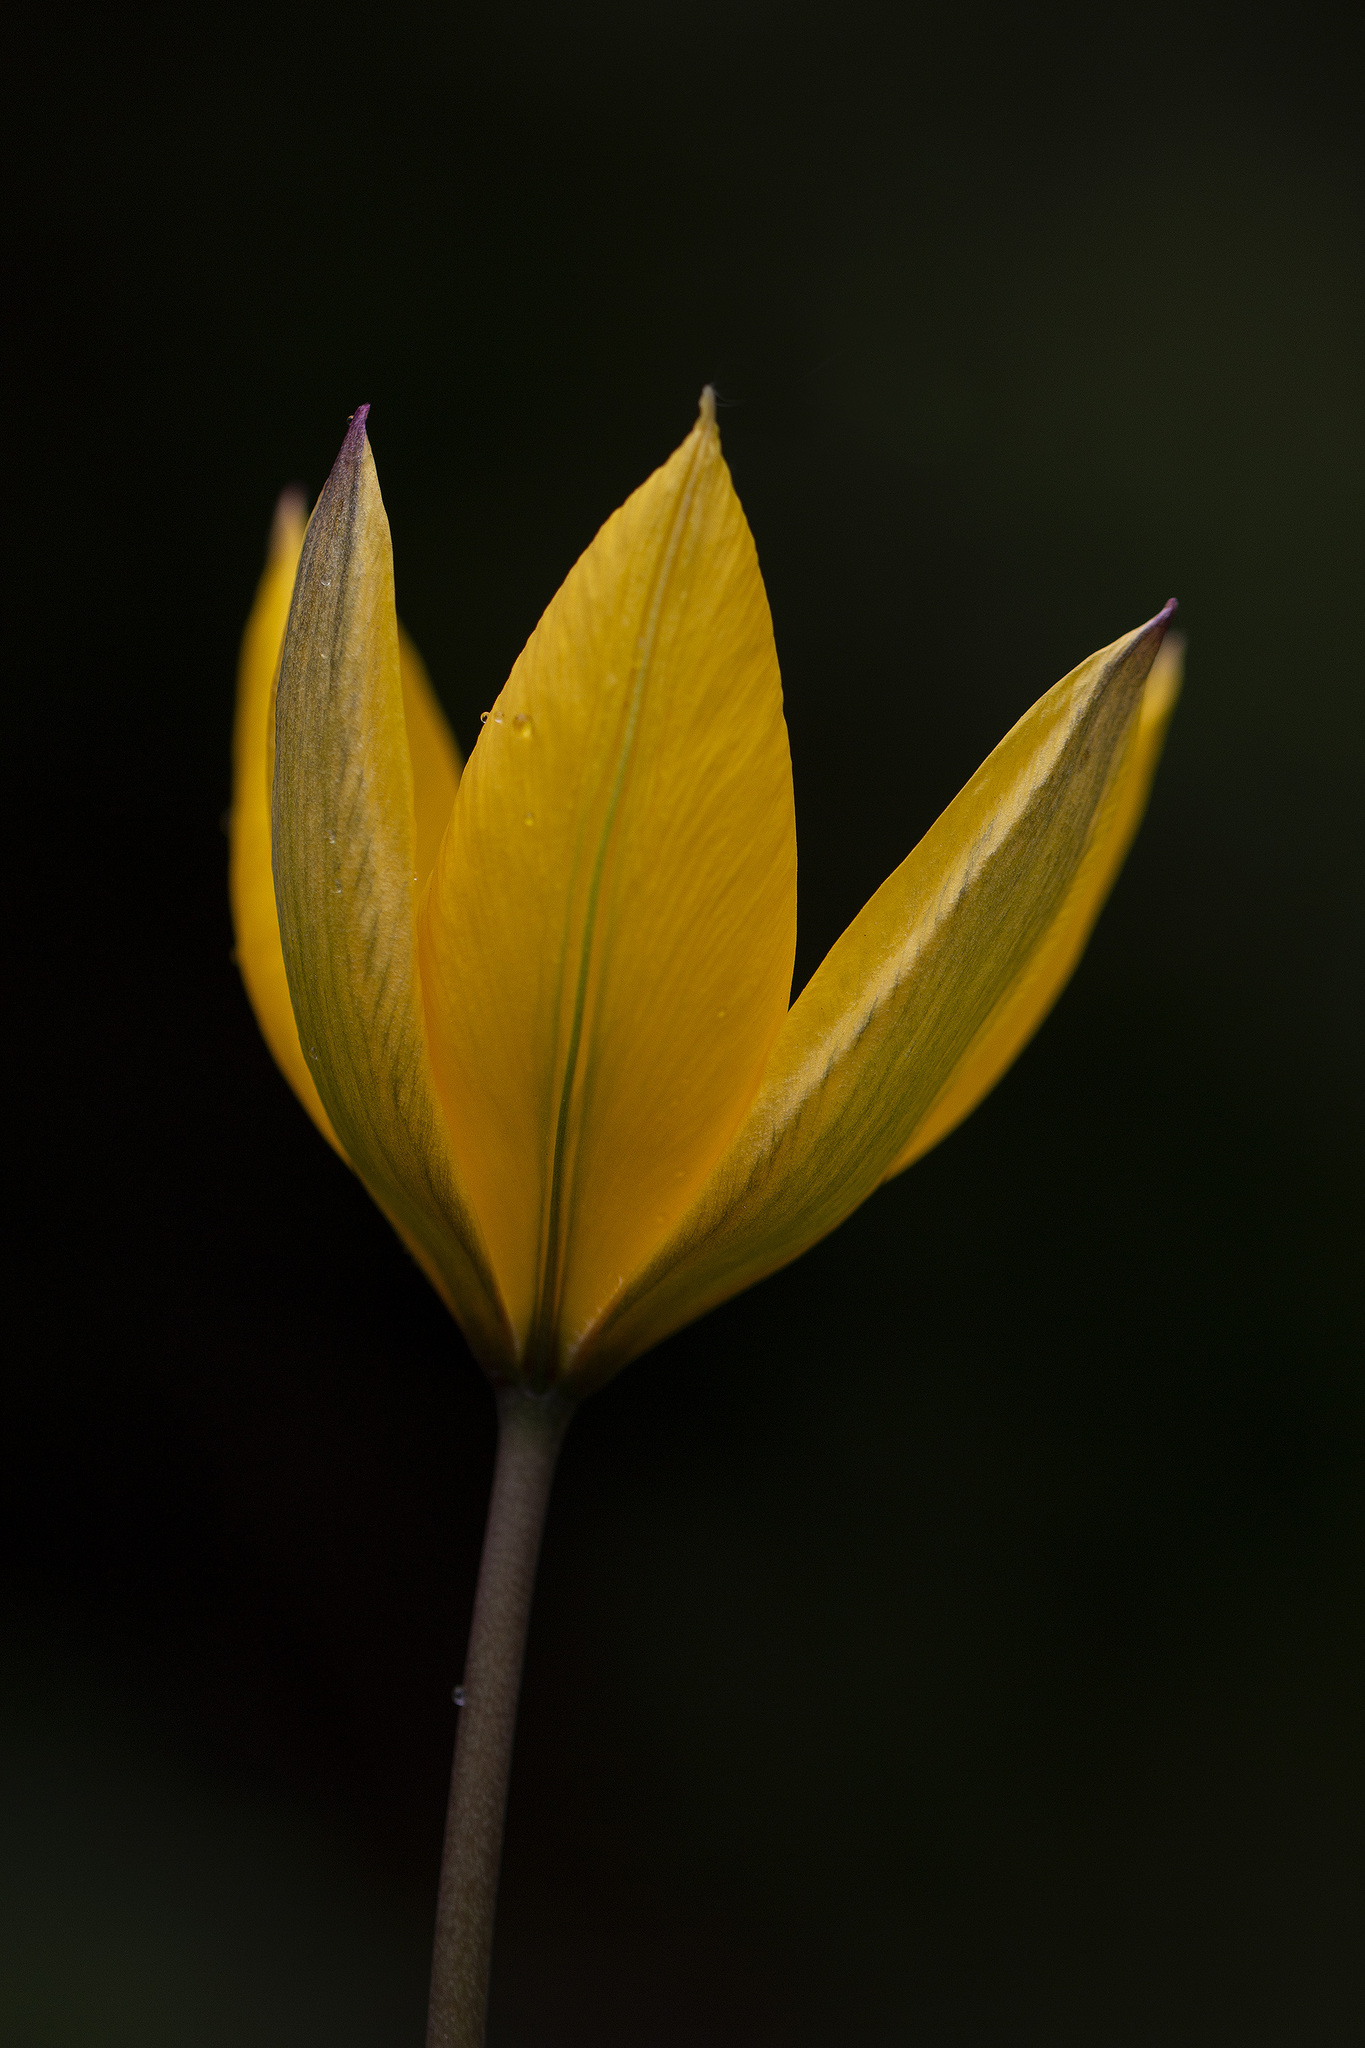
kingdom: Plantae
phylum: Tracheophyta
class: Liliopsida
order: Liliales
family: Liliaceae
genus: Tulipa
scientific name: Tulipa sylvestris
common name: Wild tulip
